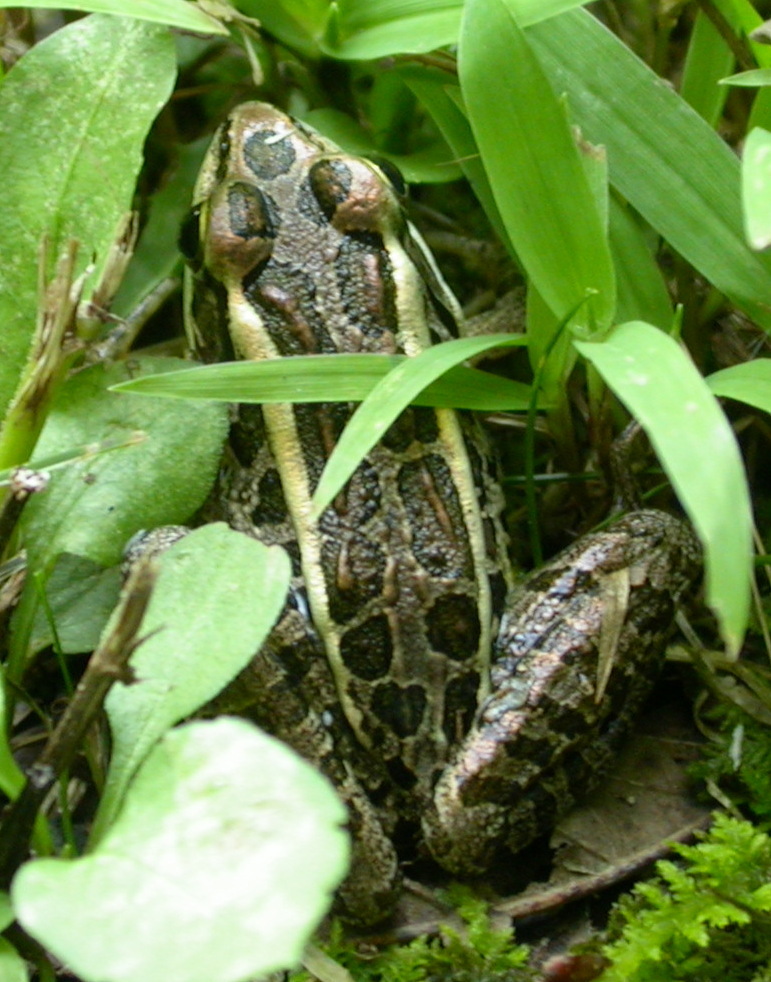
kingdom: Animalia
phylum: Chordata
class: Amphibia
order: Anura
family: Ranidae
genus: Lithobates
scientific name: Lithobates palustris
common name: Pickerel frog
